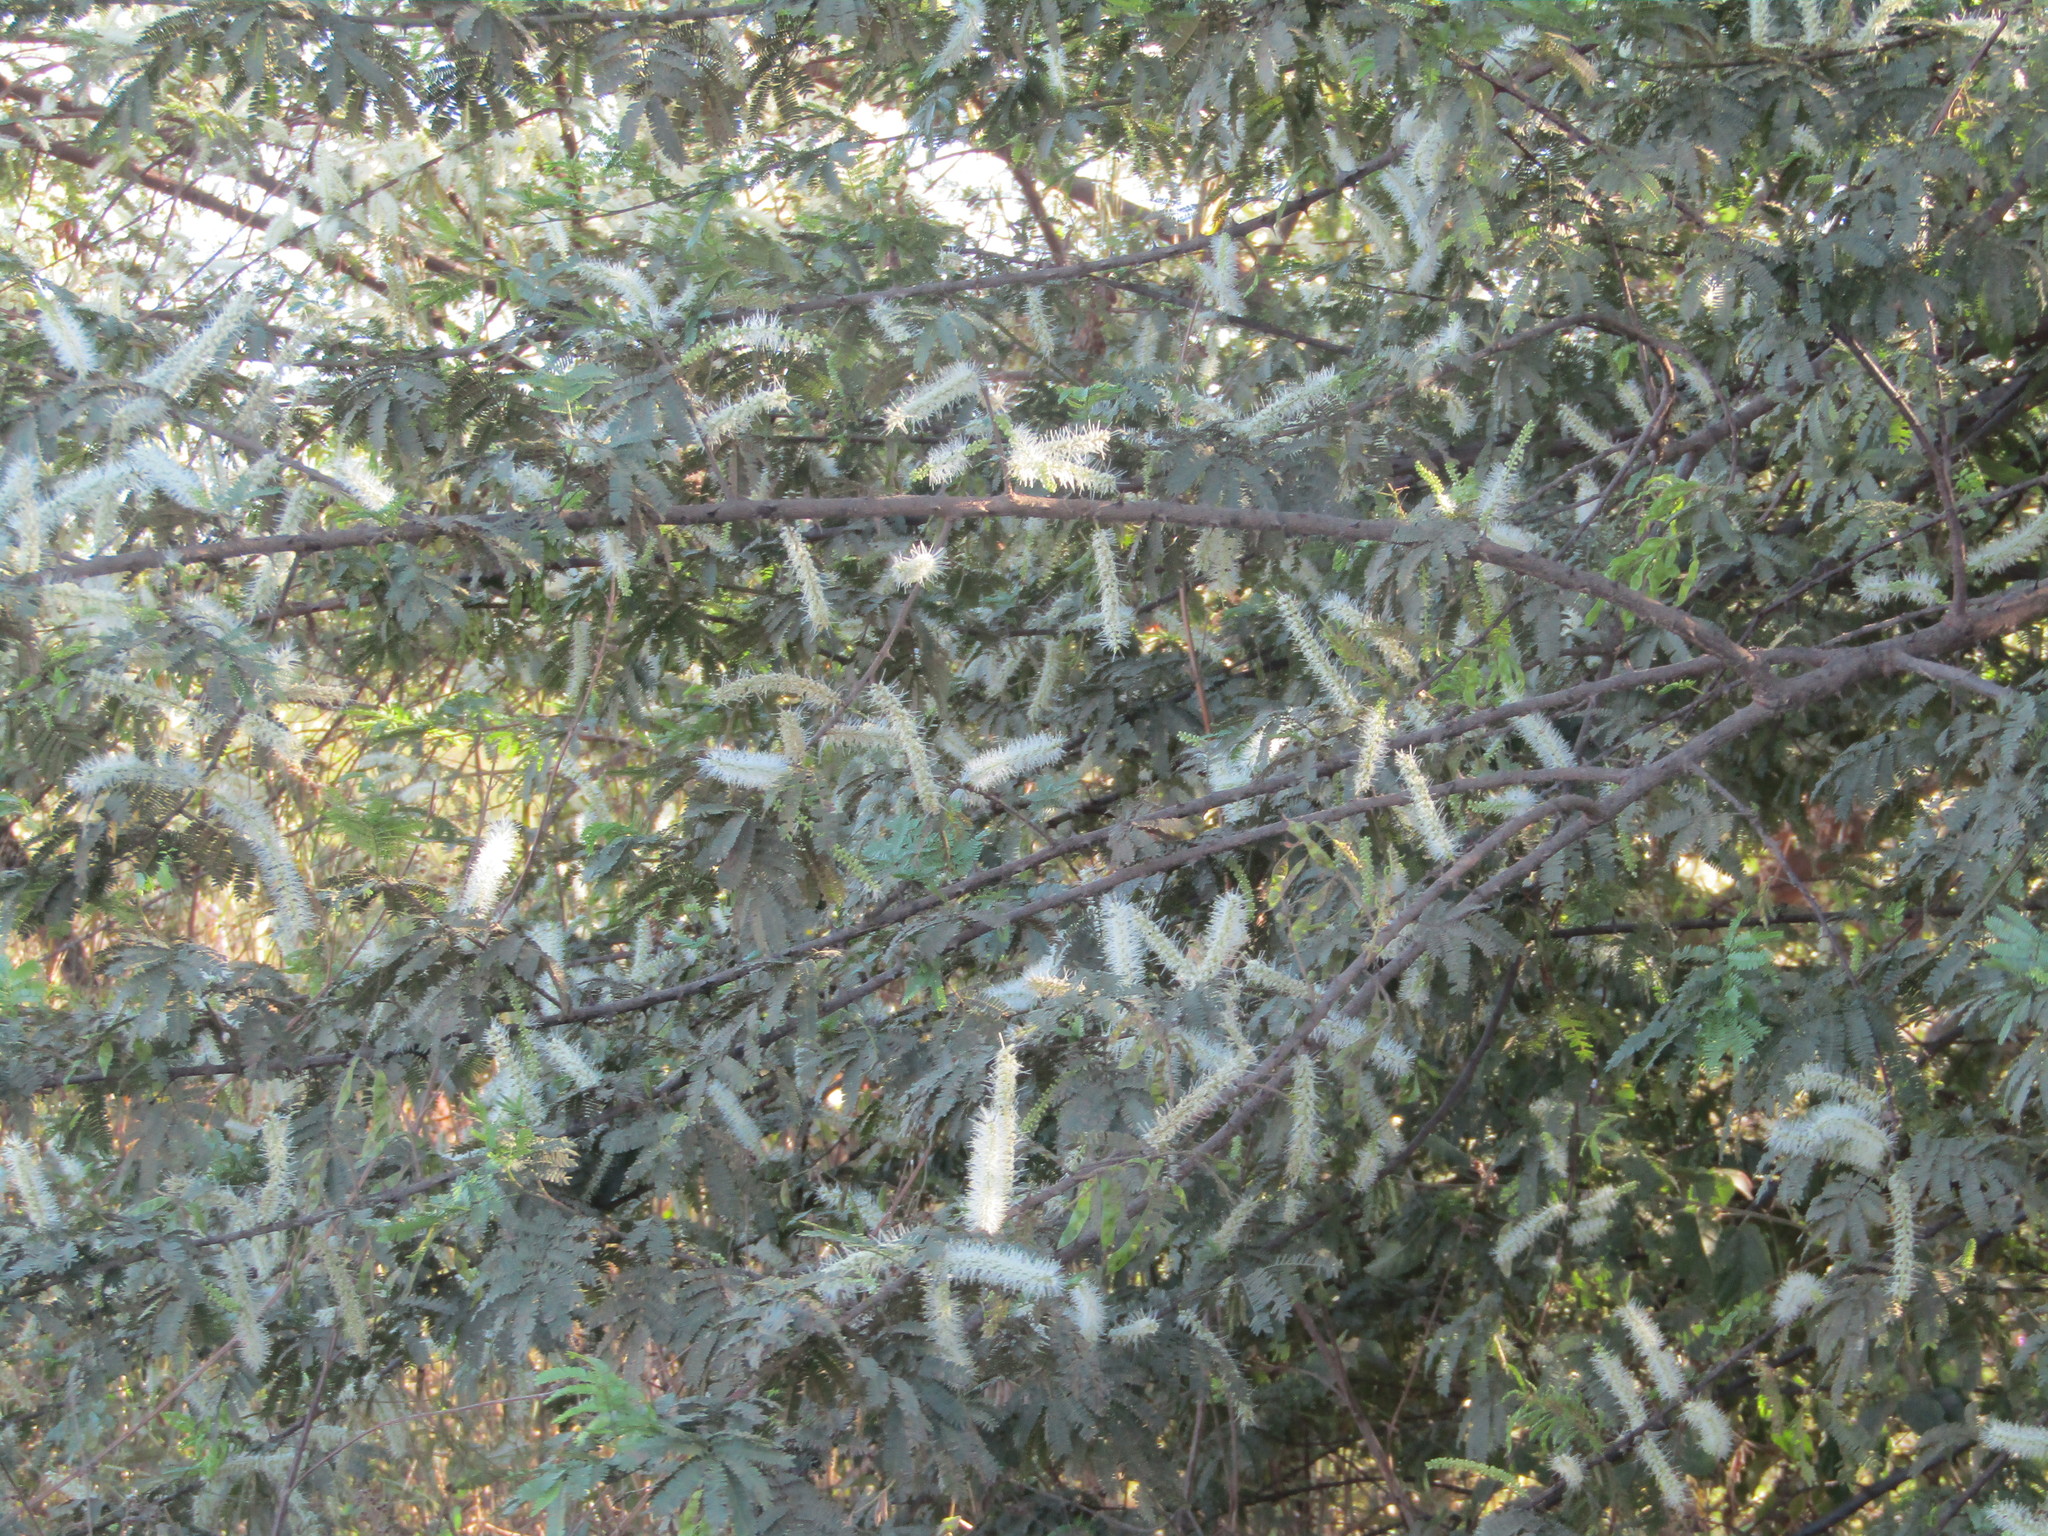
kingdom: Plantae
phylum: Tracheophyta
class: Magnoliopsida
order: Fabales
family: Fabaceae
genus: Mimosa
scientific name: Mimosa tenuiflora
